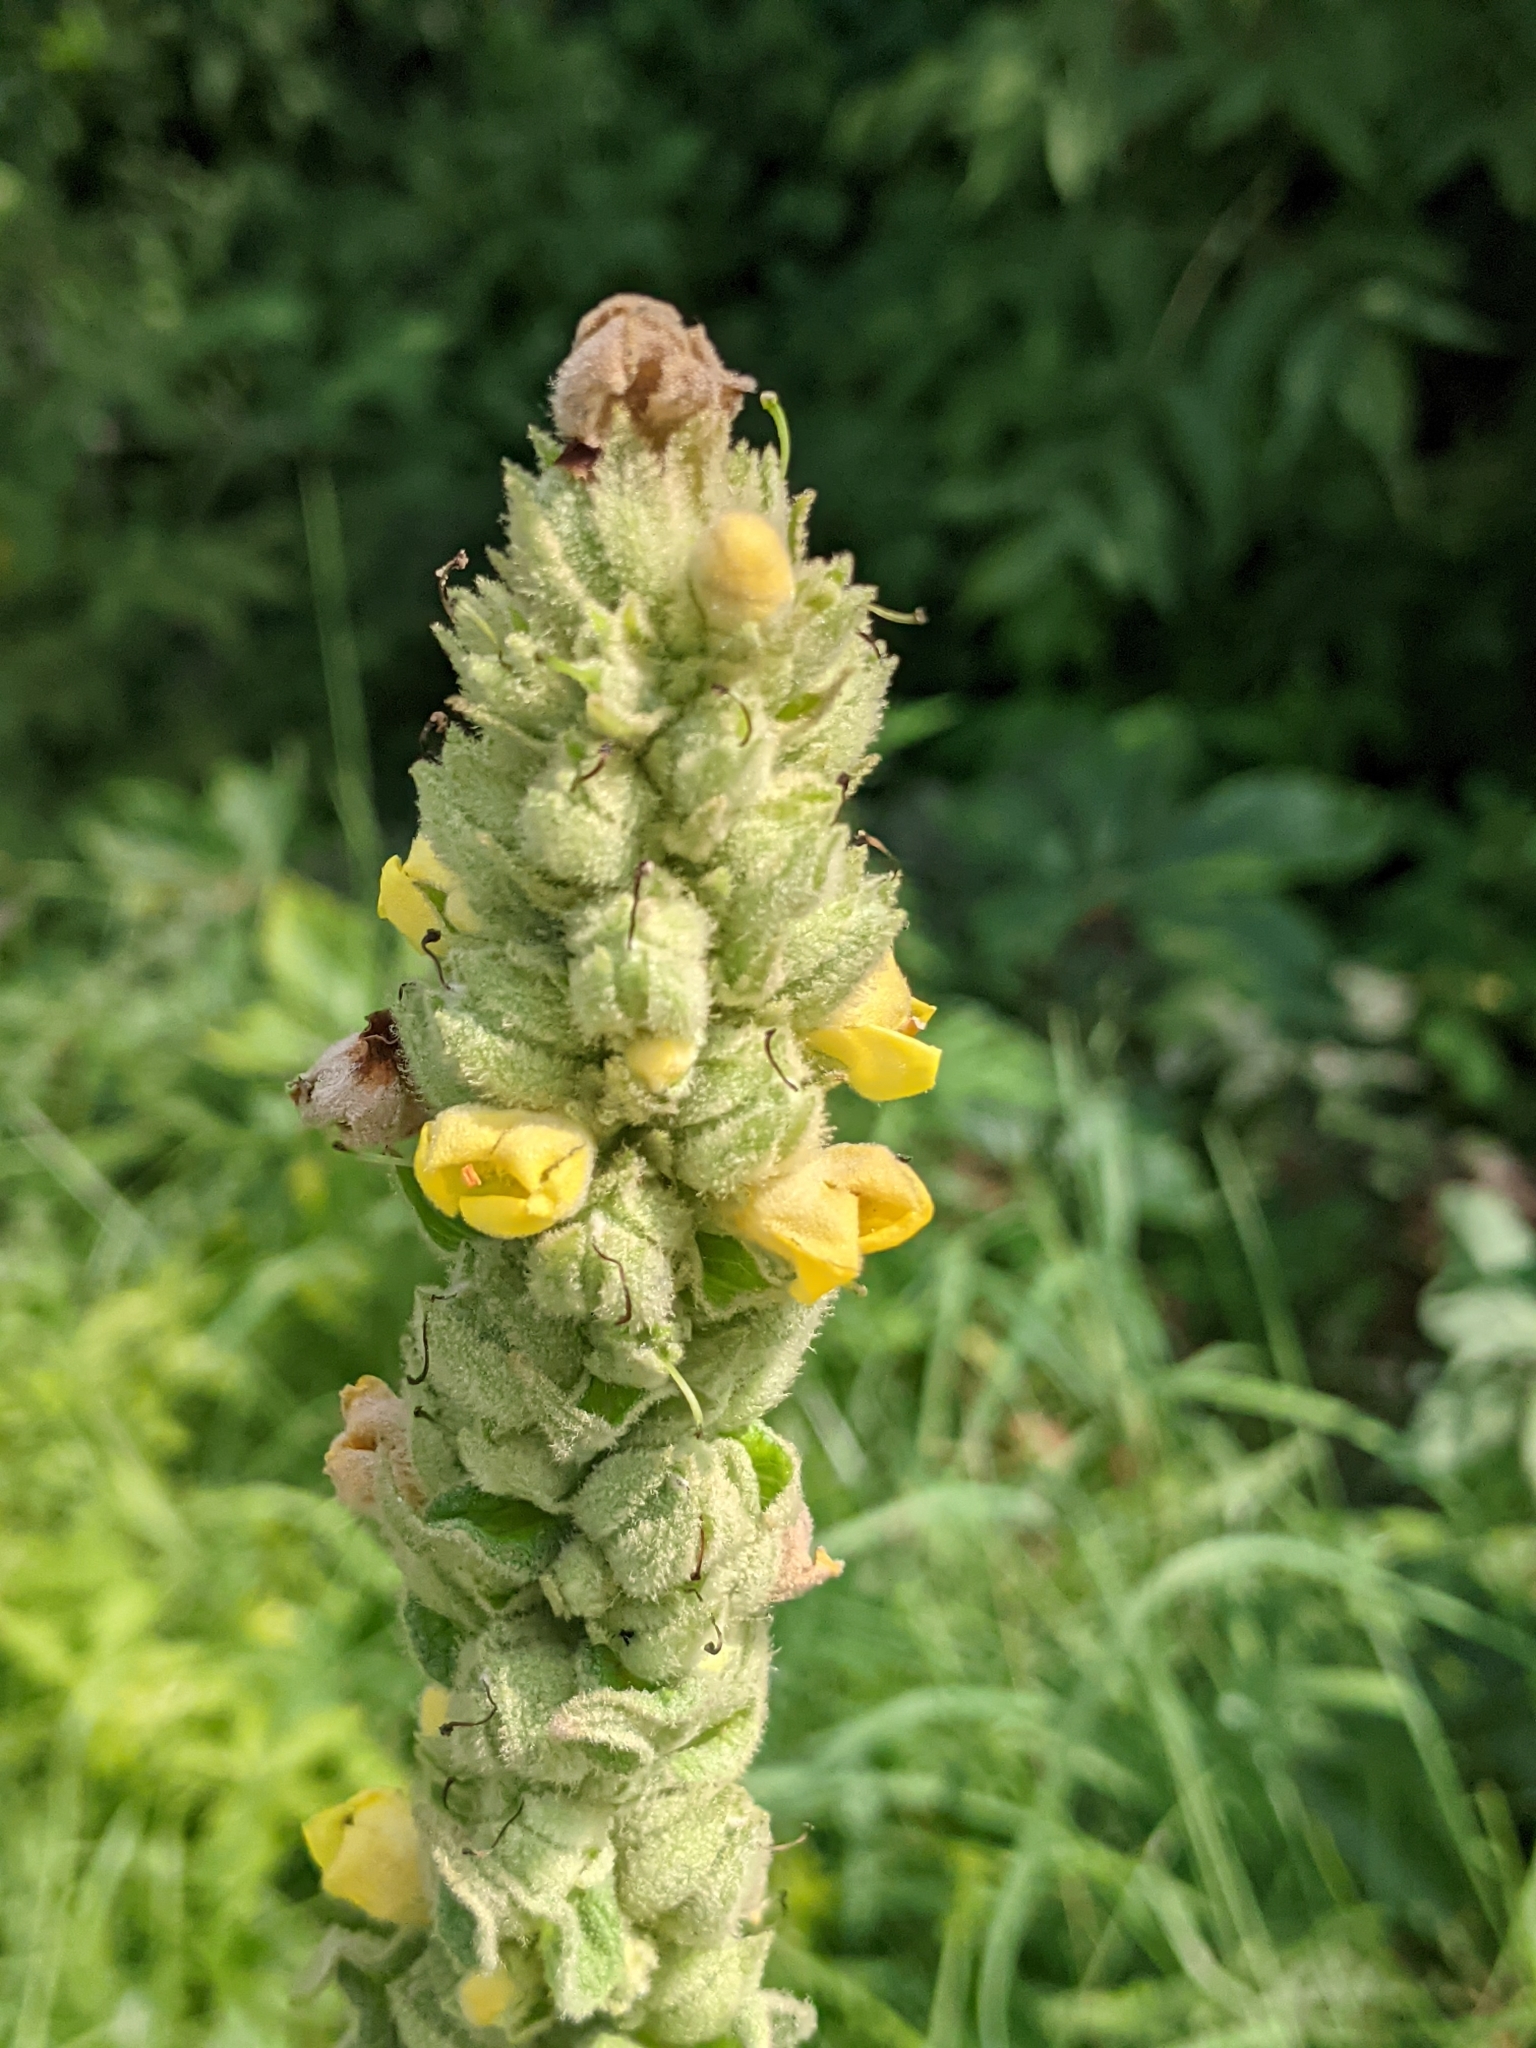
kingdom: Plantae
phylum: Tracheophyta
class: Magnoliopsida
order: Lamiales
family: Scrophulariaceae
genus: Verbascum
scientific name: Verbascum thapsus
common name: Common mullein
